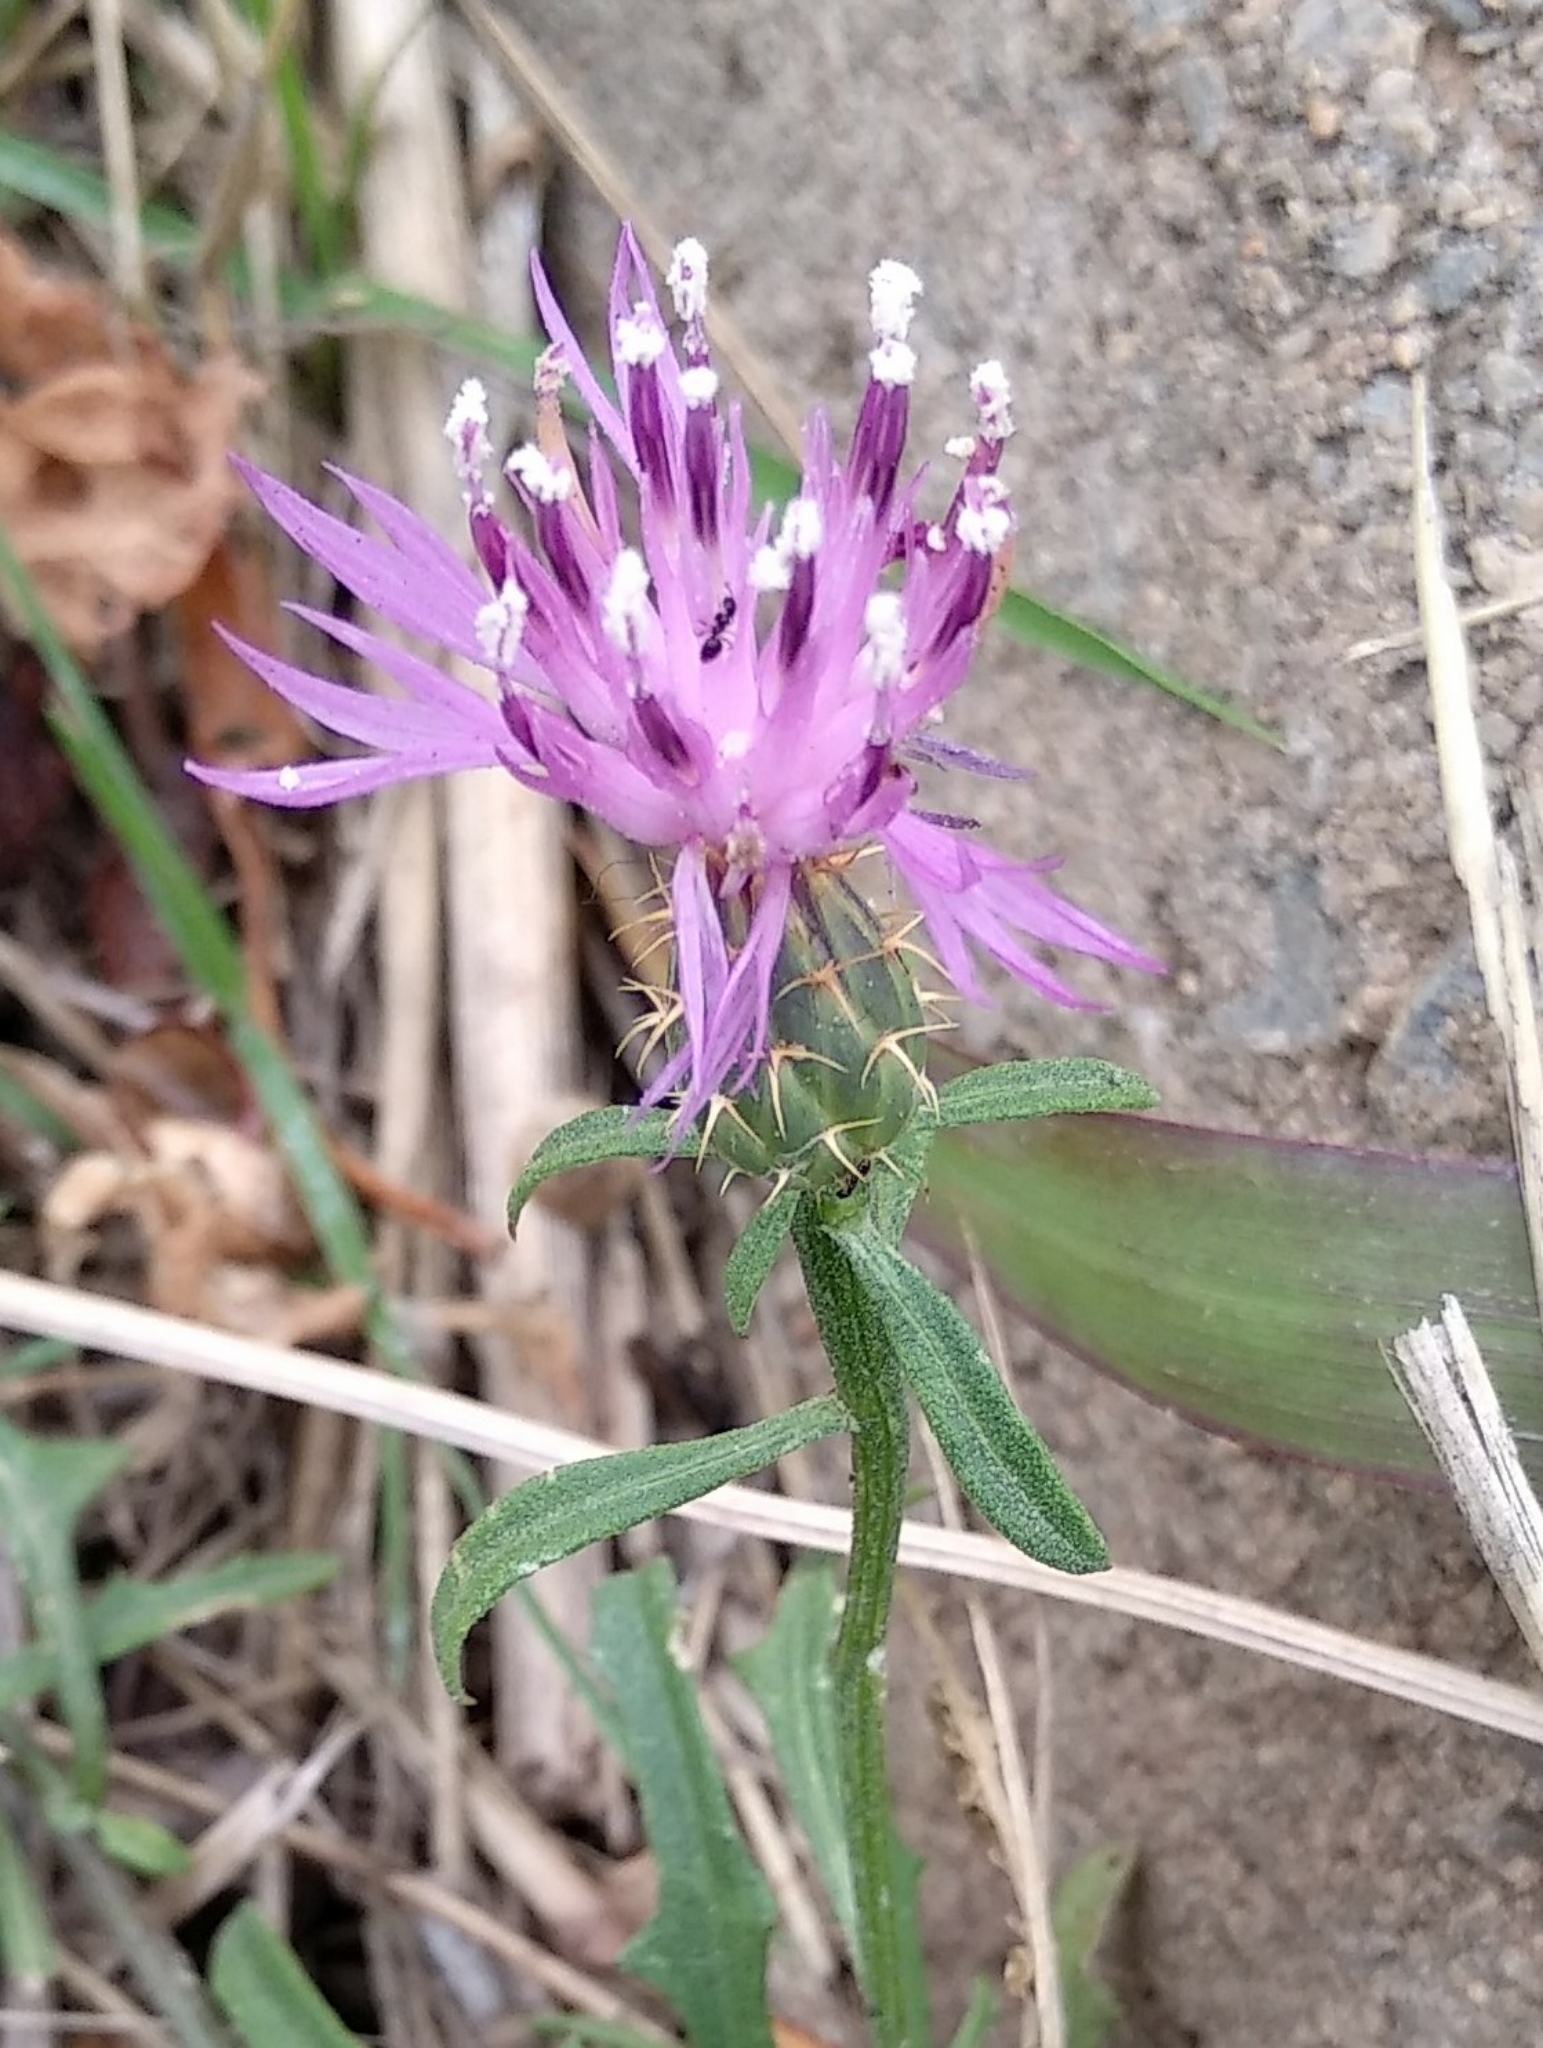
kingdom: Plantae
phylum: Tracheophyta
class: Magnoliopsida
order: Asterales
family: Asteraceae
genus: Centaurea
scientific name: Centaurea aspera
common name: Rough star-thistle
